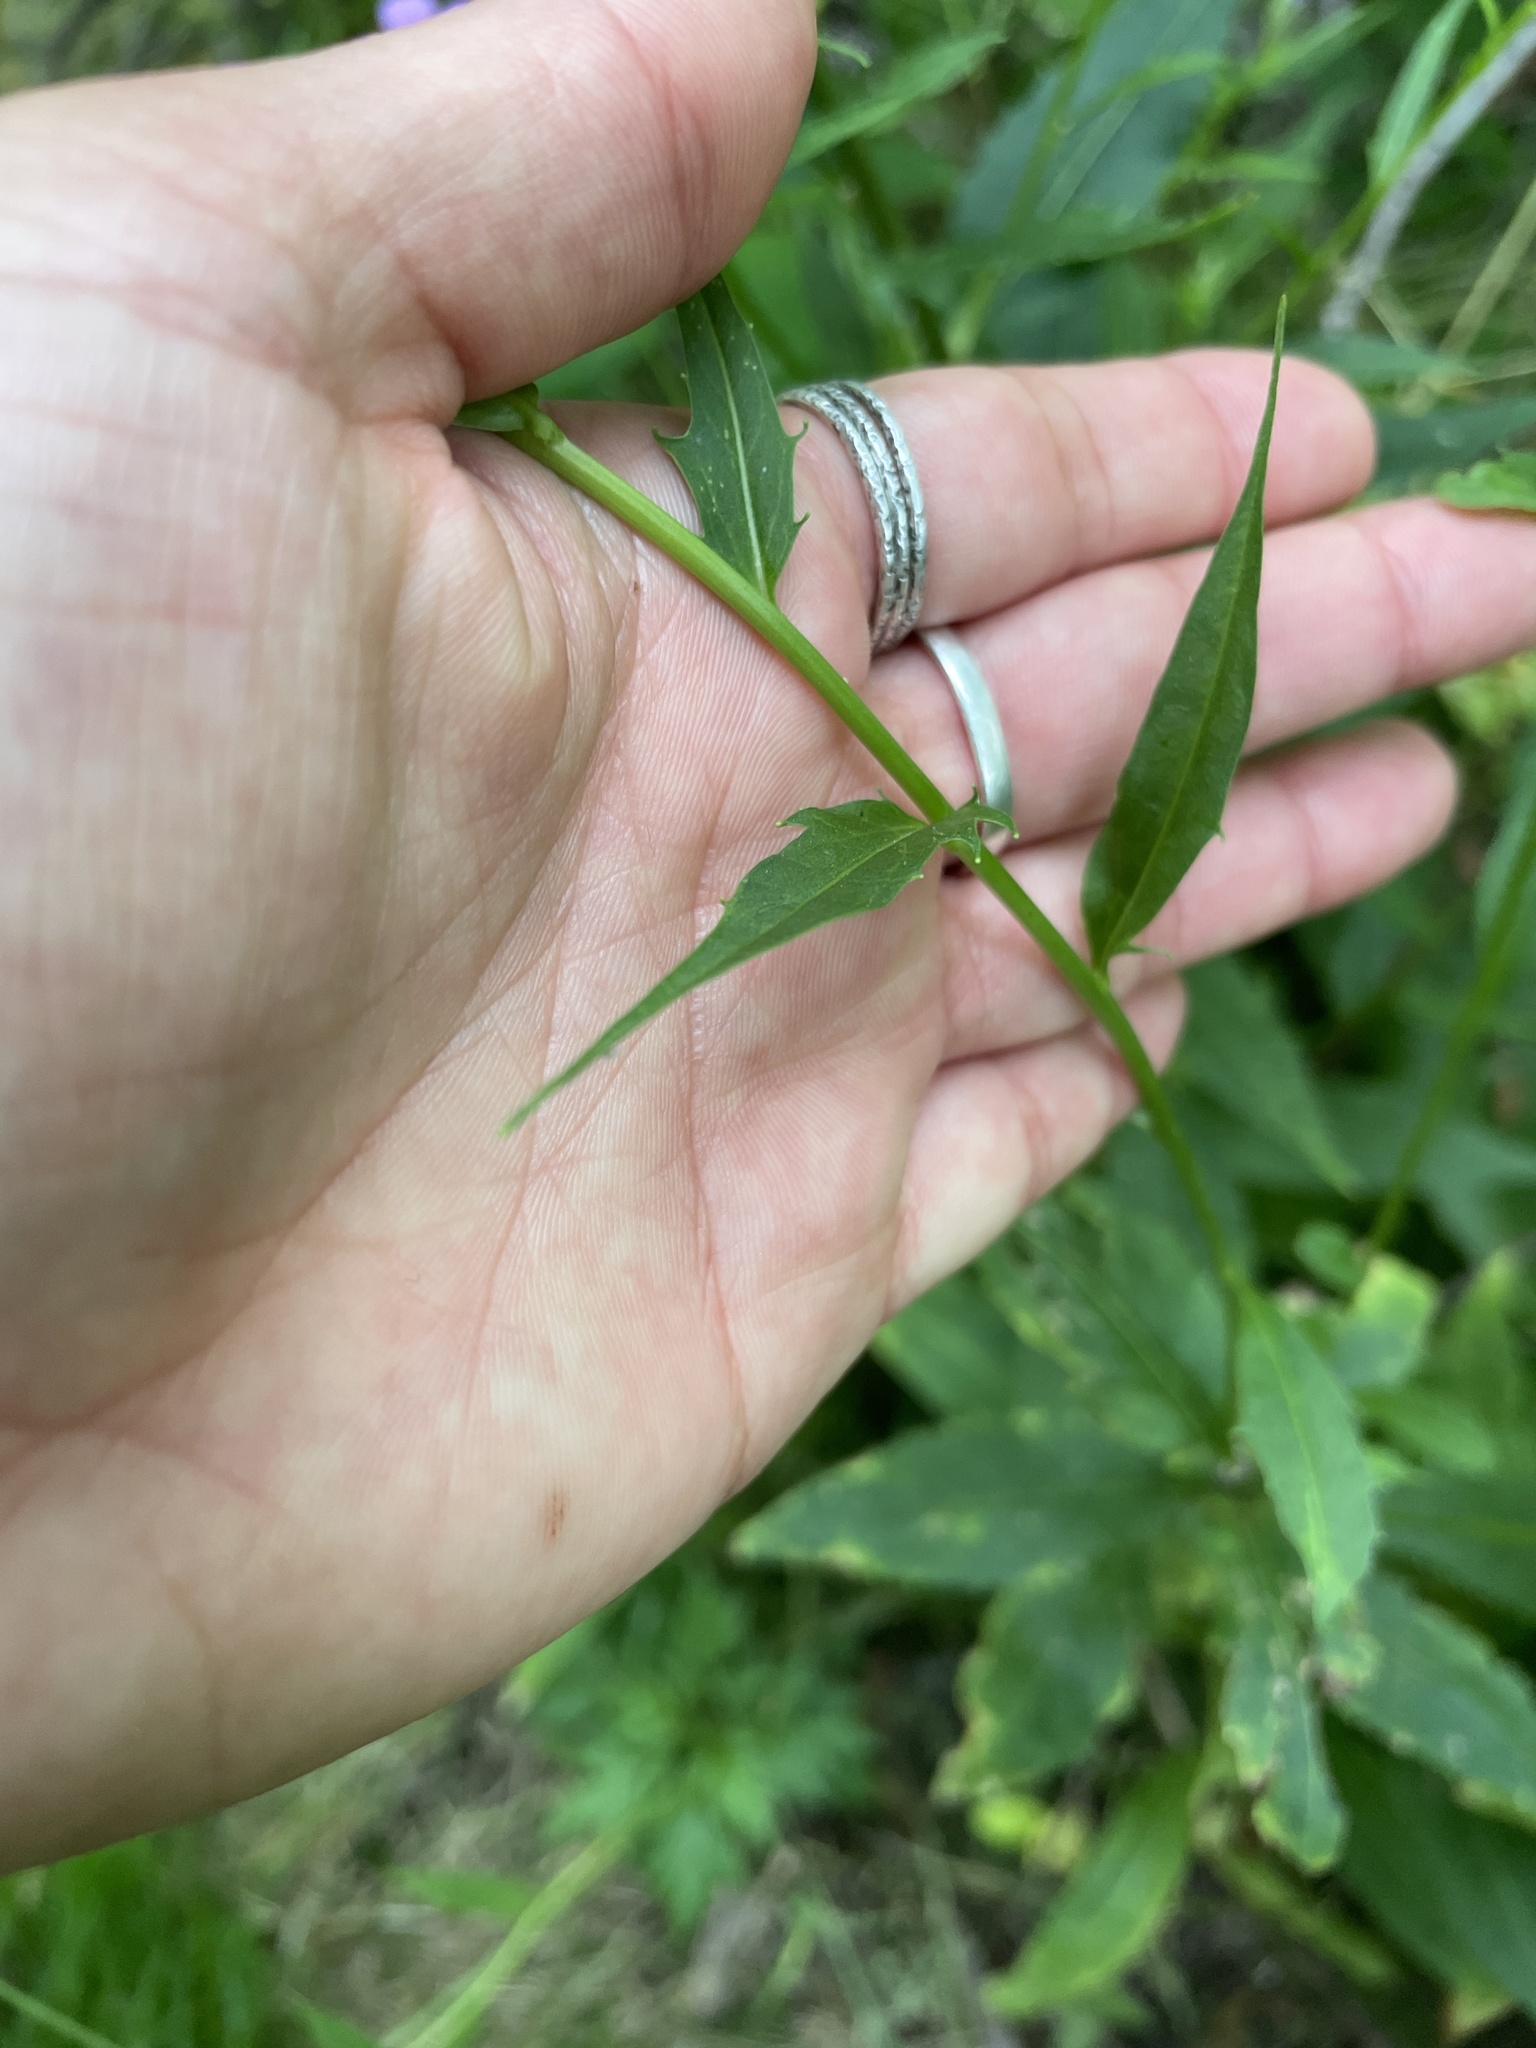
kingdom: Plantae
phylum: Tracheophyta
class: Magnoliopsida
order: Brassicales
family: Brassicaceae
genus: Hesperis
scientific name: Hesperis matronalis
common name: Dame's-violet
